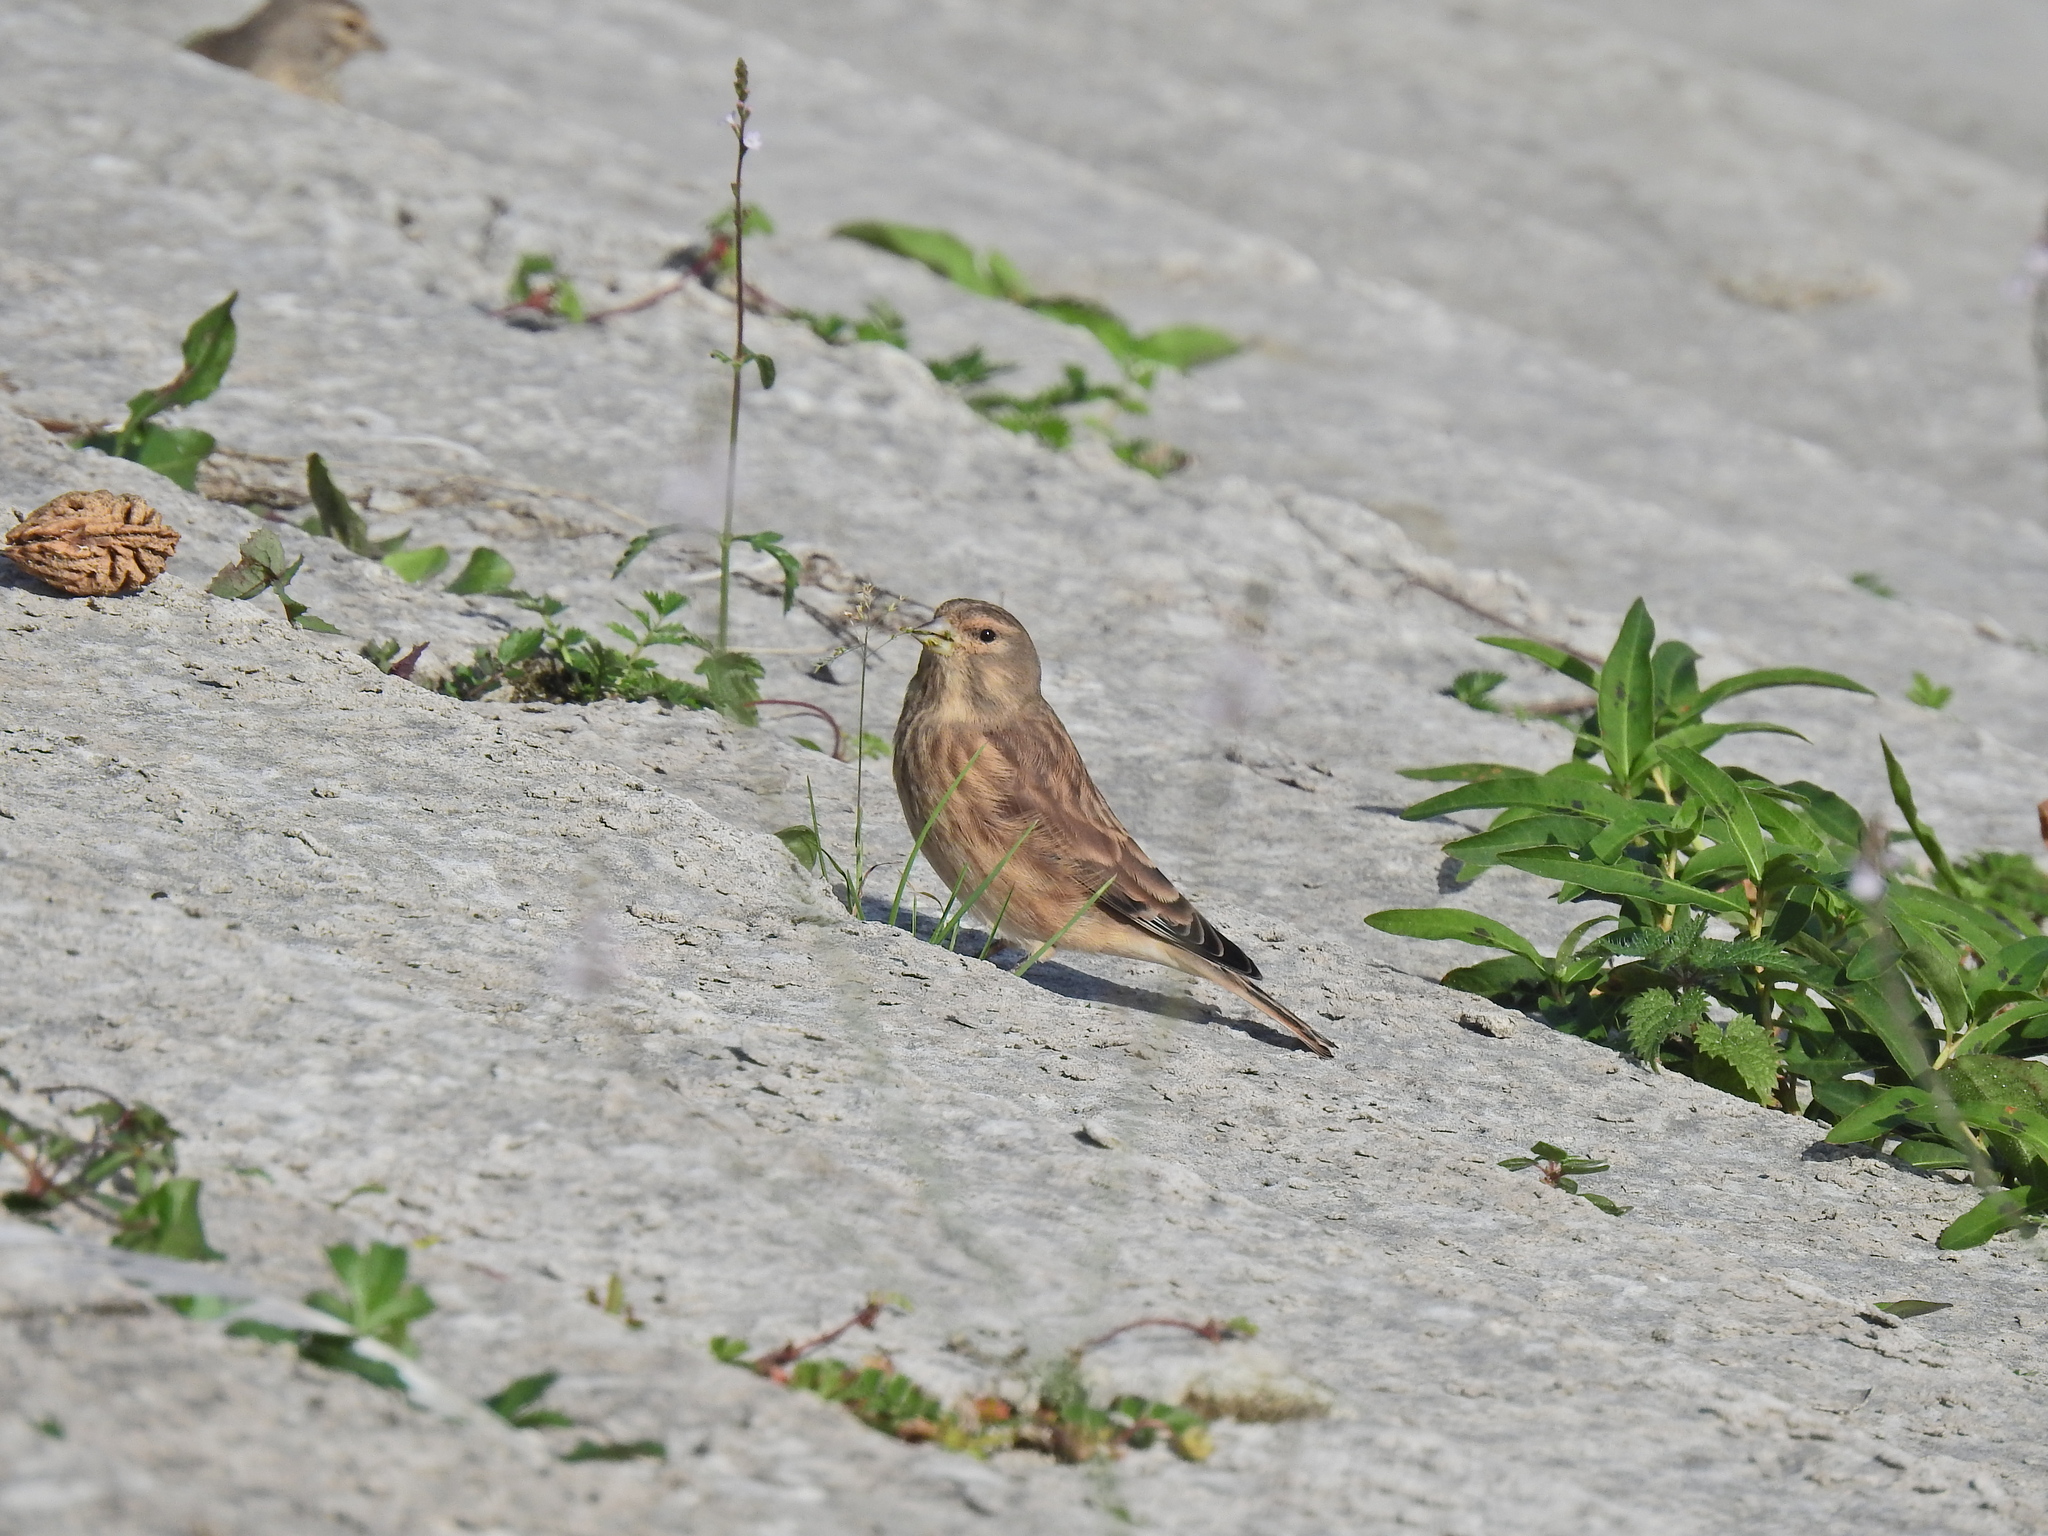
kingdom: Animalia
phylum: Chordata
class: Aves
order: Passeriformes
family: Fringillidae
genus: Linaria
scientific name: Linaria cannabina
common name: Common linnet
